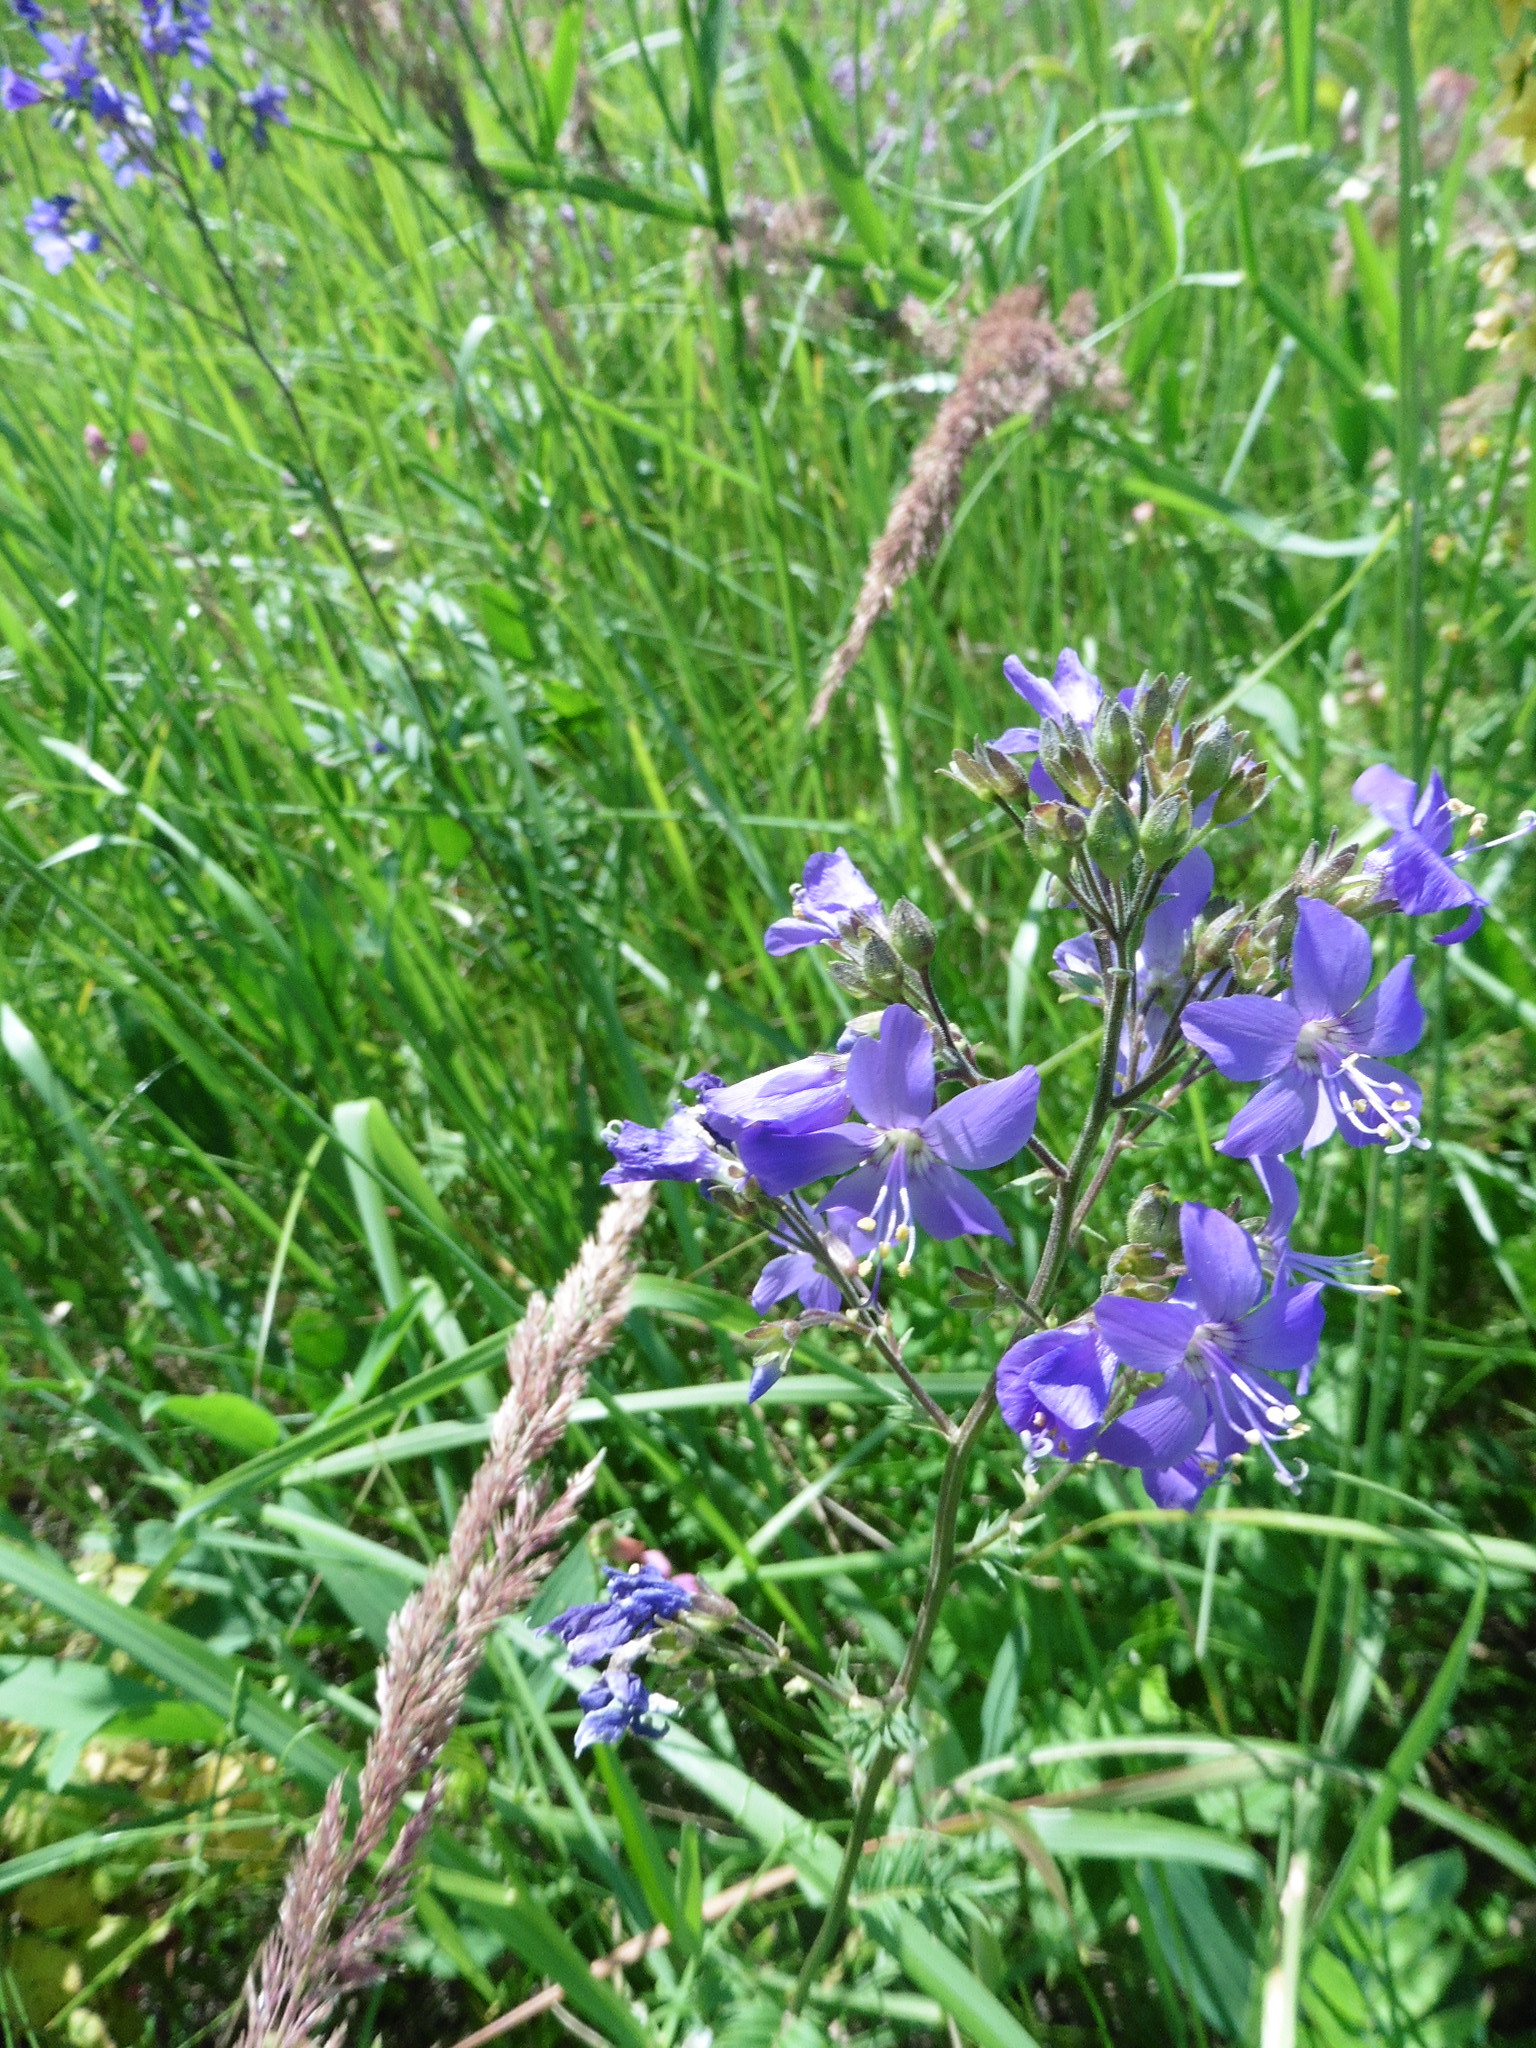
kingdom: Plantae
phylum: Tracheophyta
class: Magnoliopsida
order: Ericales
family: Polemoniaceae
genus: Polemonium
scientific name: Polemonium caeruleum
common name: Jacob's-ladder
